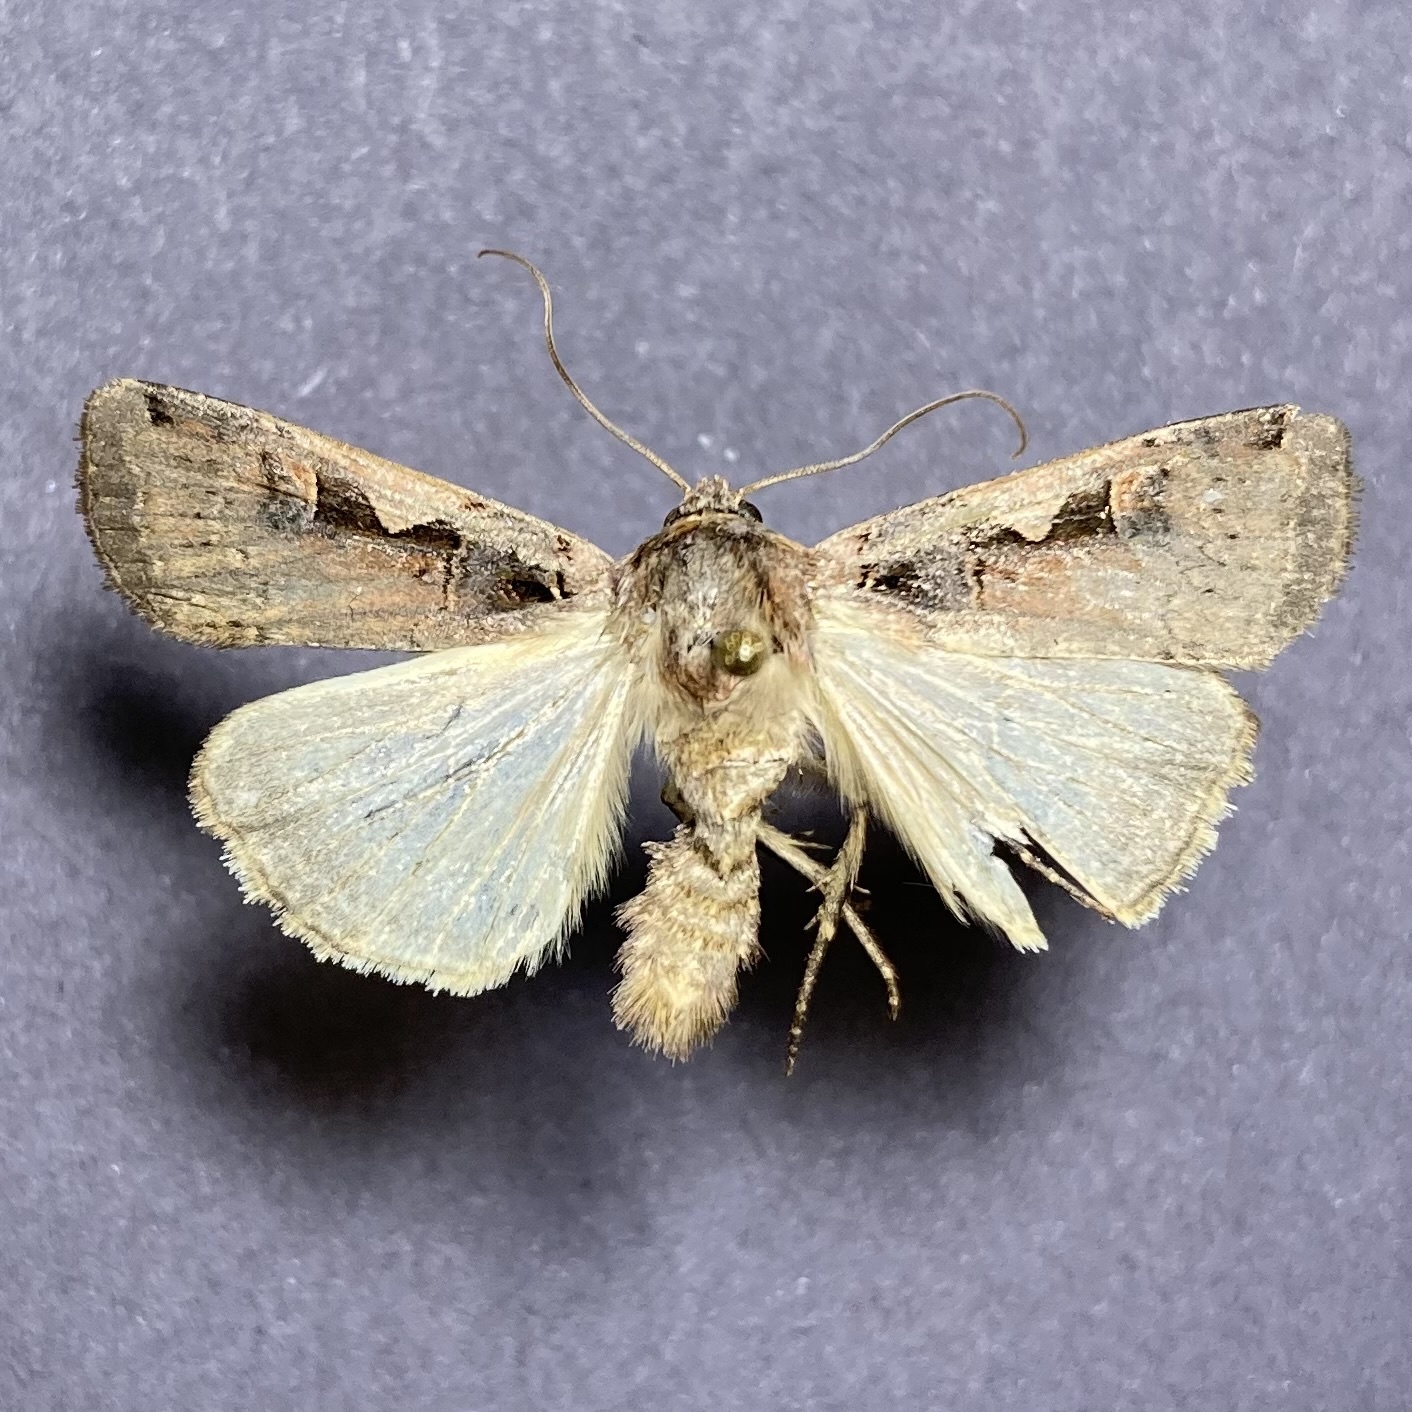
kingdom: Animalia
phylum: Arthropoda
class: Insecta
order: Lepidoptera
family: Noctuidae
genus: Xestia
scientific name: Xestia
